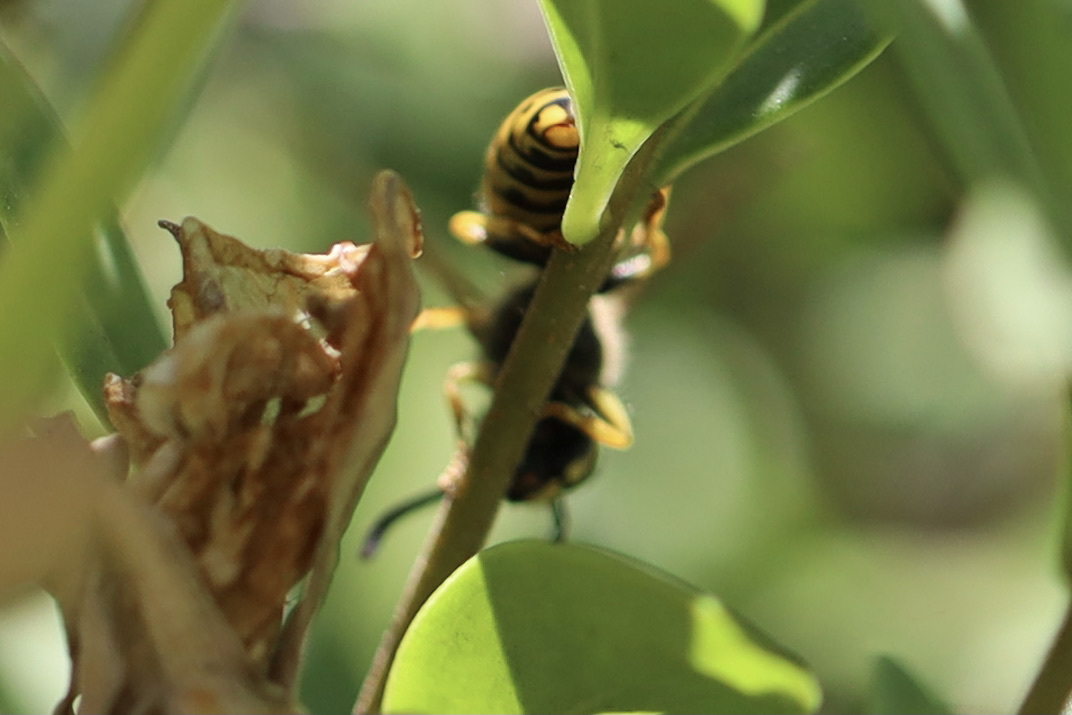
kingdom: Animalia
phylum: Arthropoda
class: Insecta
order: Hymenoptera
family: Vespidae
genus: Vespula
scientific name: Vespula
